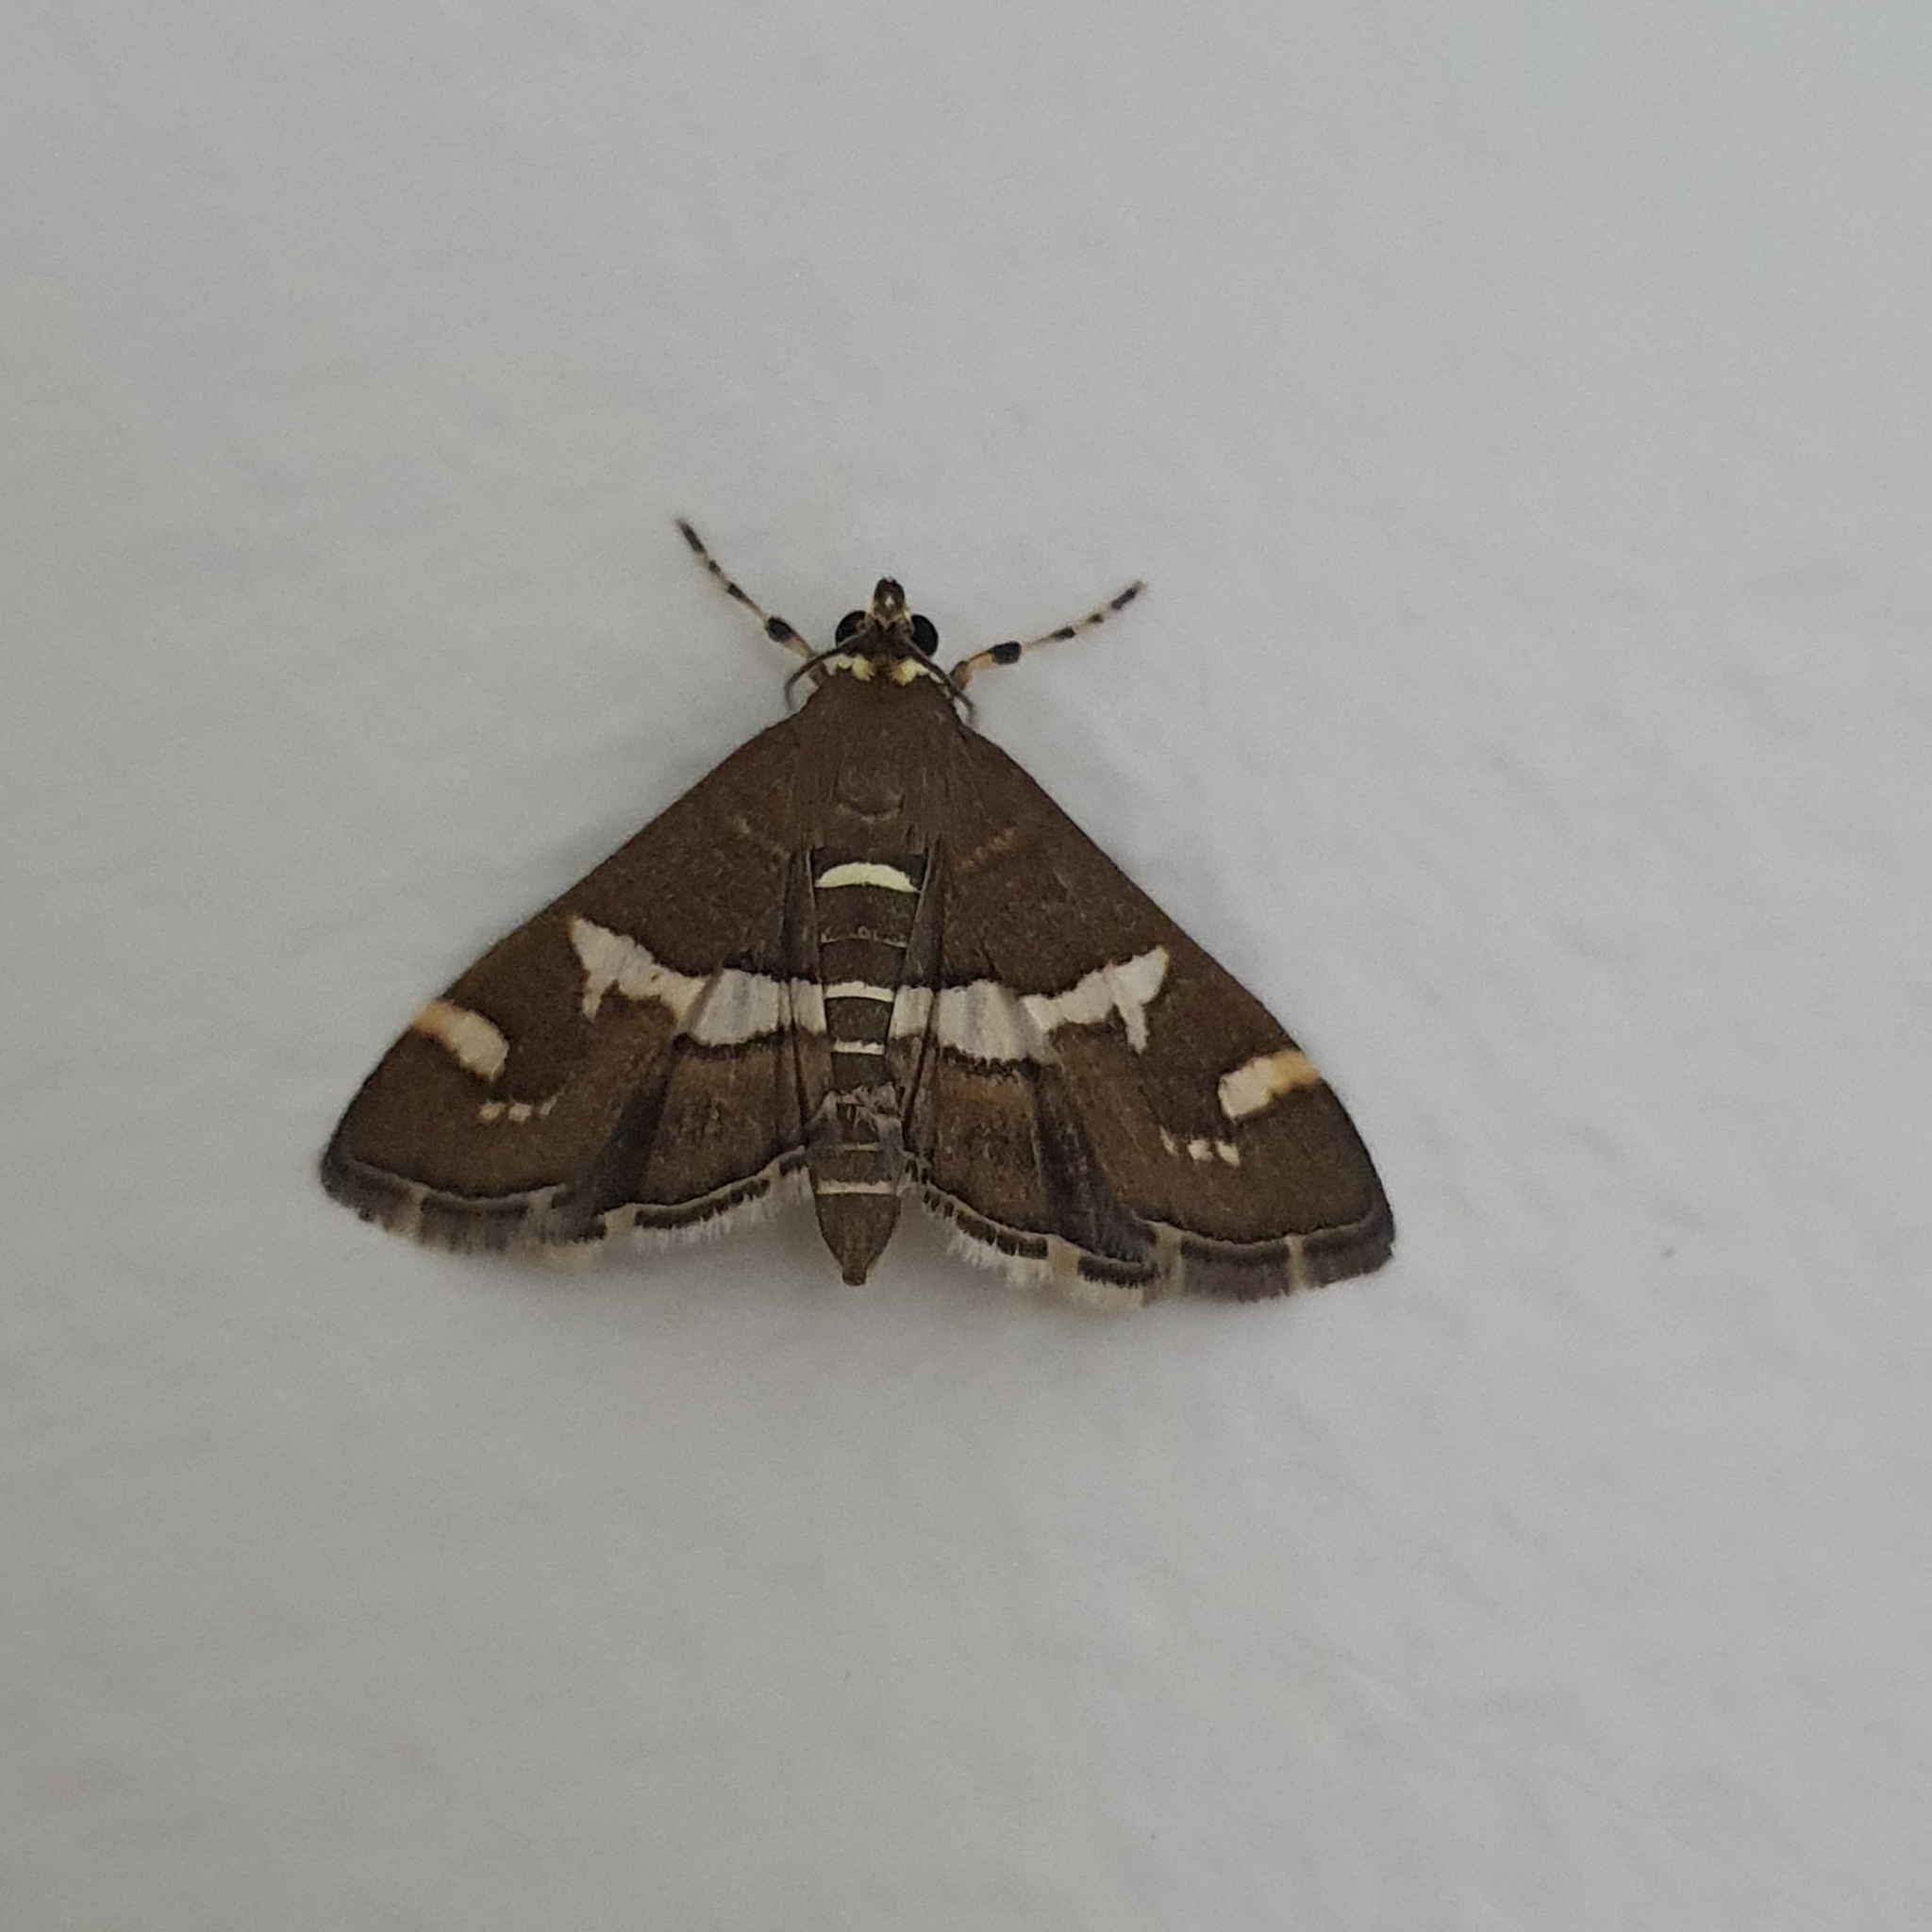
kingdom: Animalia
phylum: Arthropoda
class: Insecta
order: Lepidoptera
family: Crambidae
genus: Spoladea
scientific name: Spoladea recurvalis
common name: Beet webworm moth
